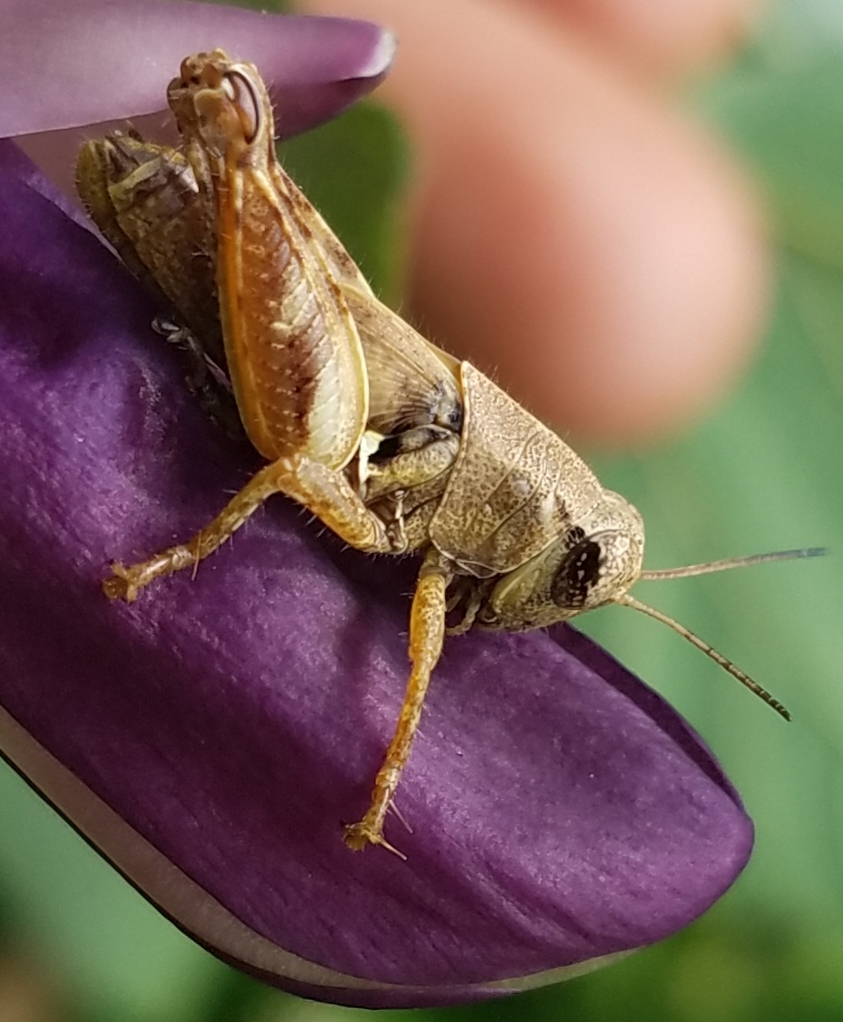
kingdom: Animalia
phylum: Arthropoda
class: Insecta
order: Orthoptera
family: Acrididae
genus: Aidemona
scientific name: Aidemona azteca
